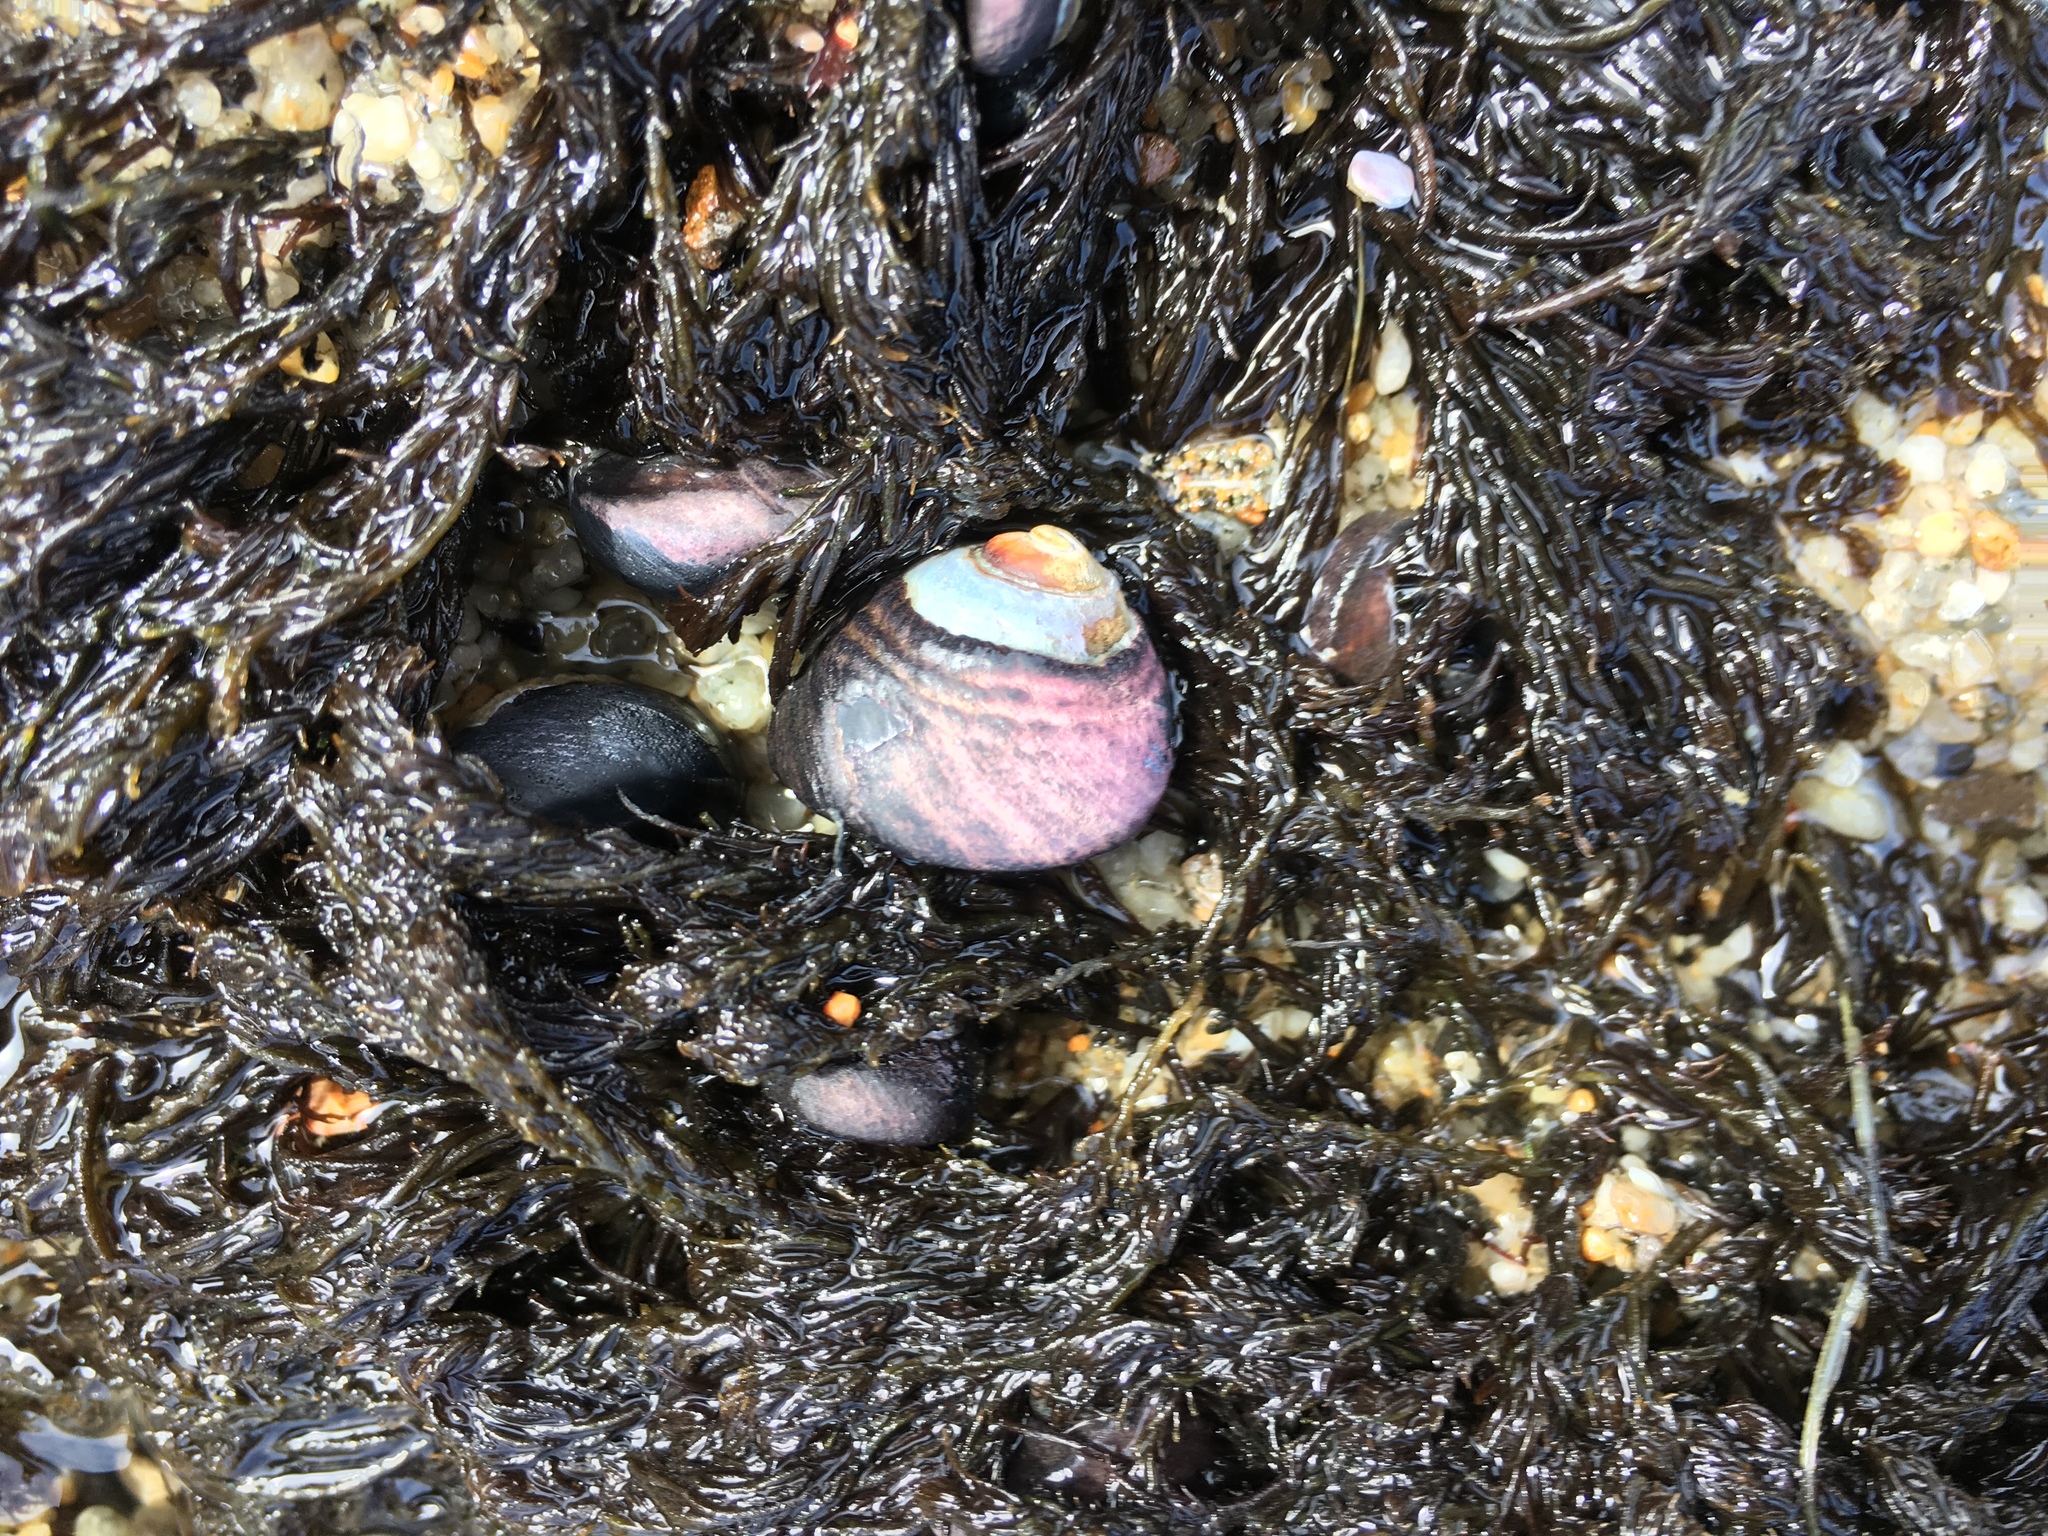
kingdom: Animalia
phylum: Mollusca
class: Gastropoda
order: Trochida
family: Tegulidae
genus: Tegula
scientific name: Tegula funebralis
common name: Black tegula
